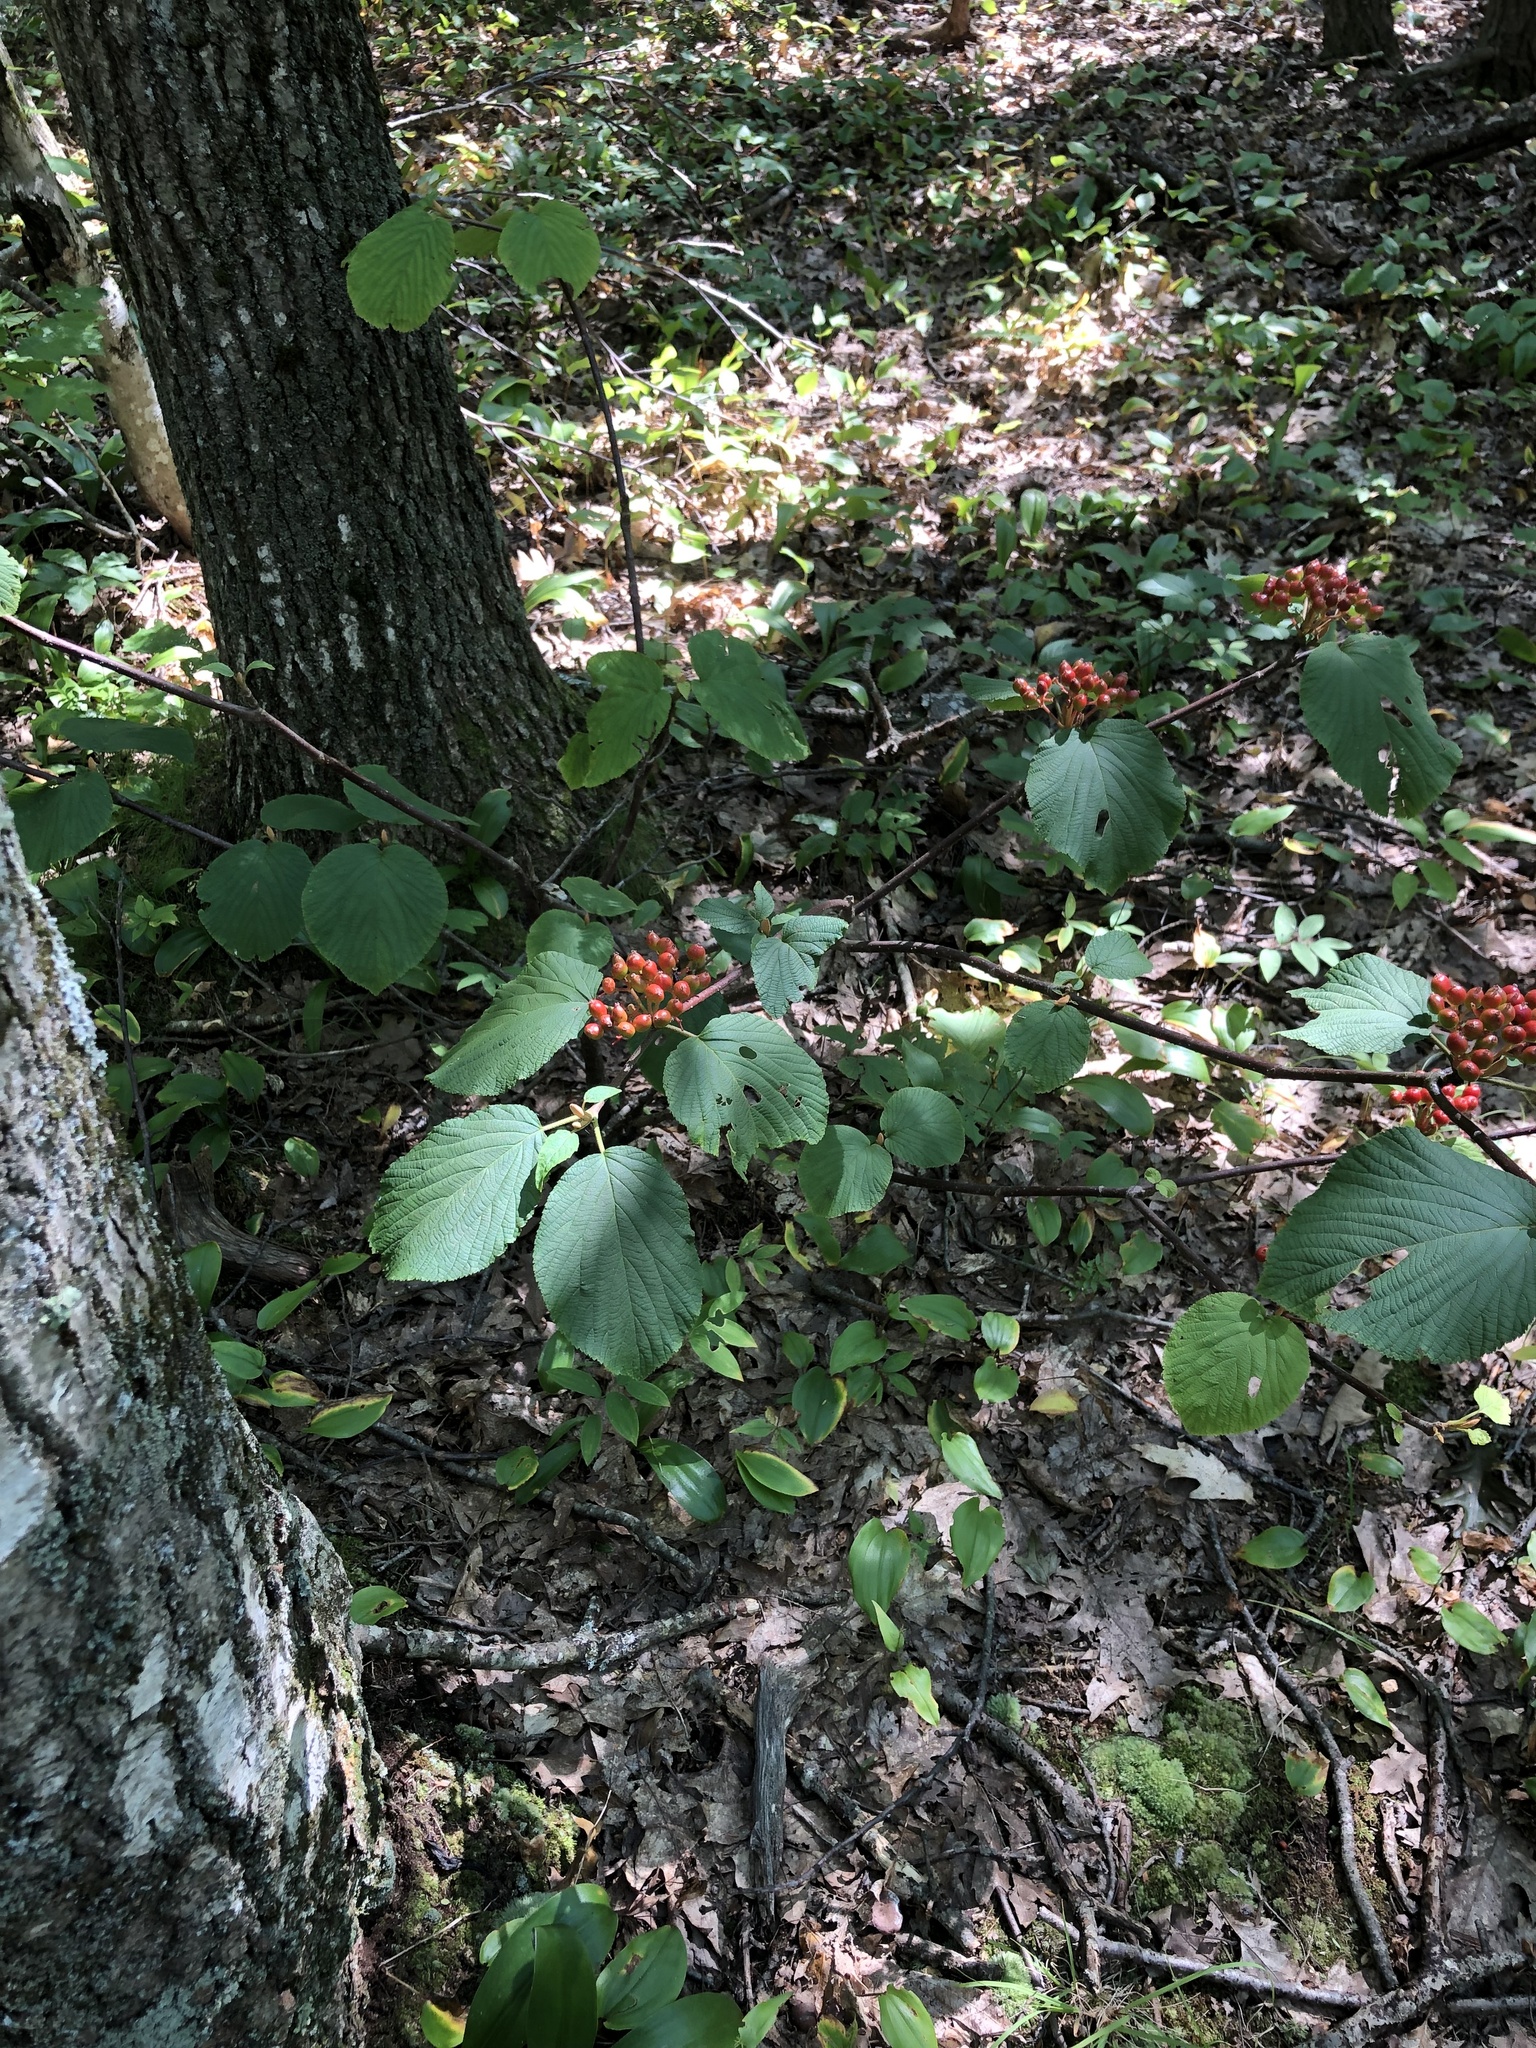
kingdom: Plantae
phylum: Tracheophyta
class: Magnoliopsida
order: Dipsacales
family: Viburnaceae
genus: Viburnum
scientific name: Viburnum lantanoides
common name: Hobblebush
